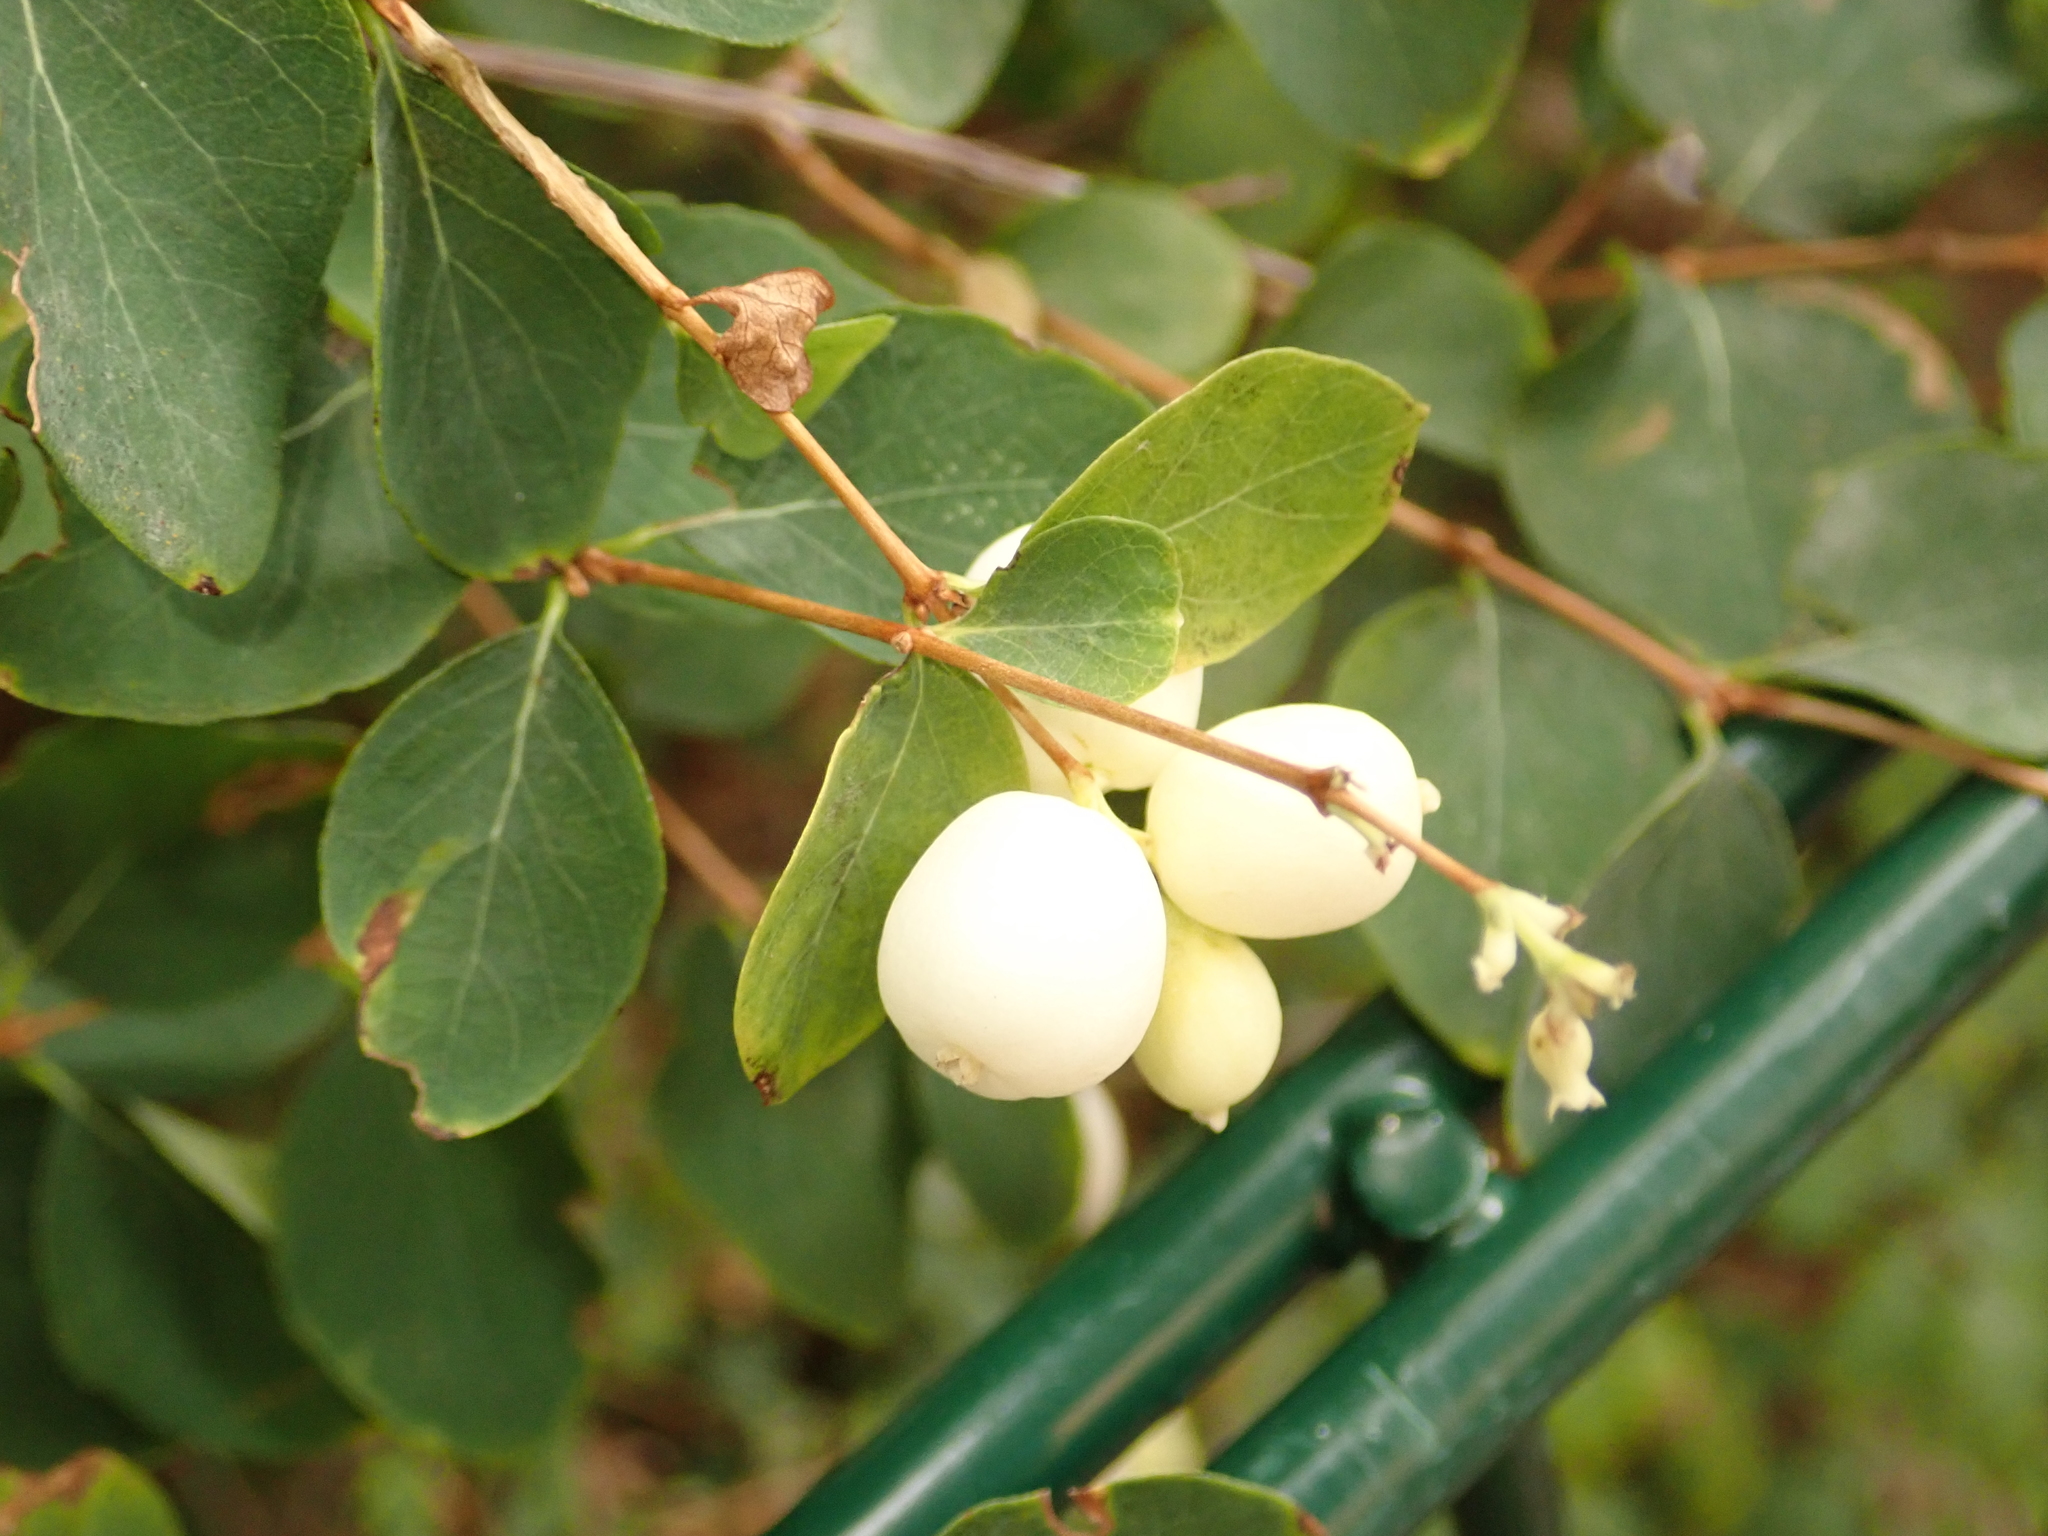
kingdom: Plantae
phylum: Tracheophyta
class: Magnoliopsida
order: Dipsacales
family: Caprifoliaceae
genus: Symphoricarpos
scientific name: Symphoricarpos albus
